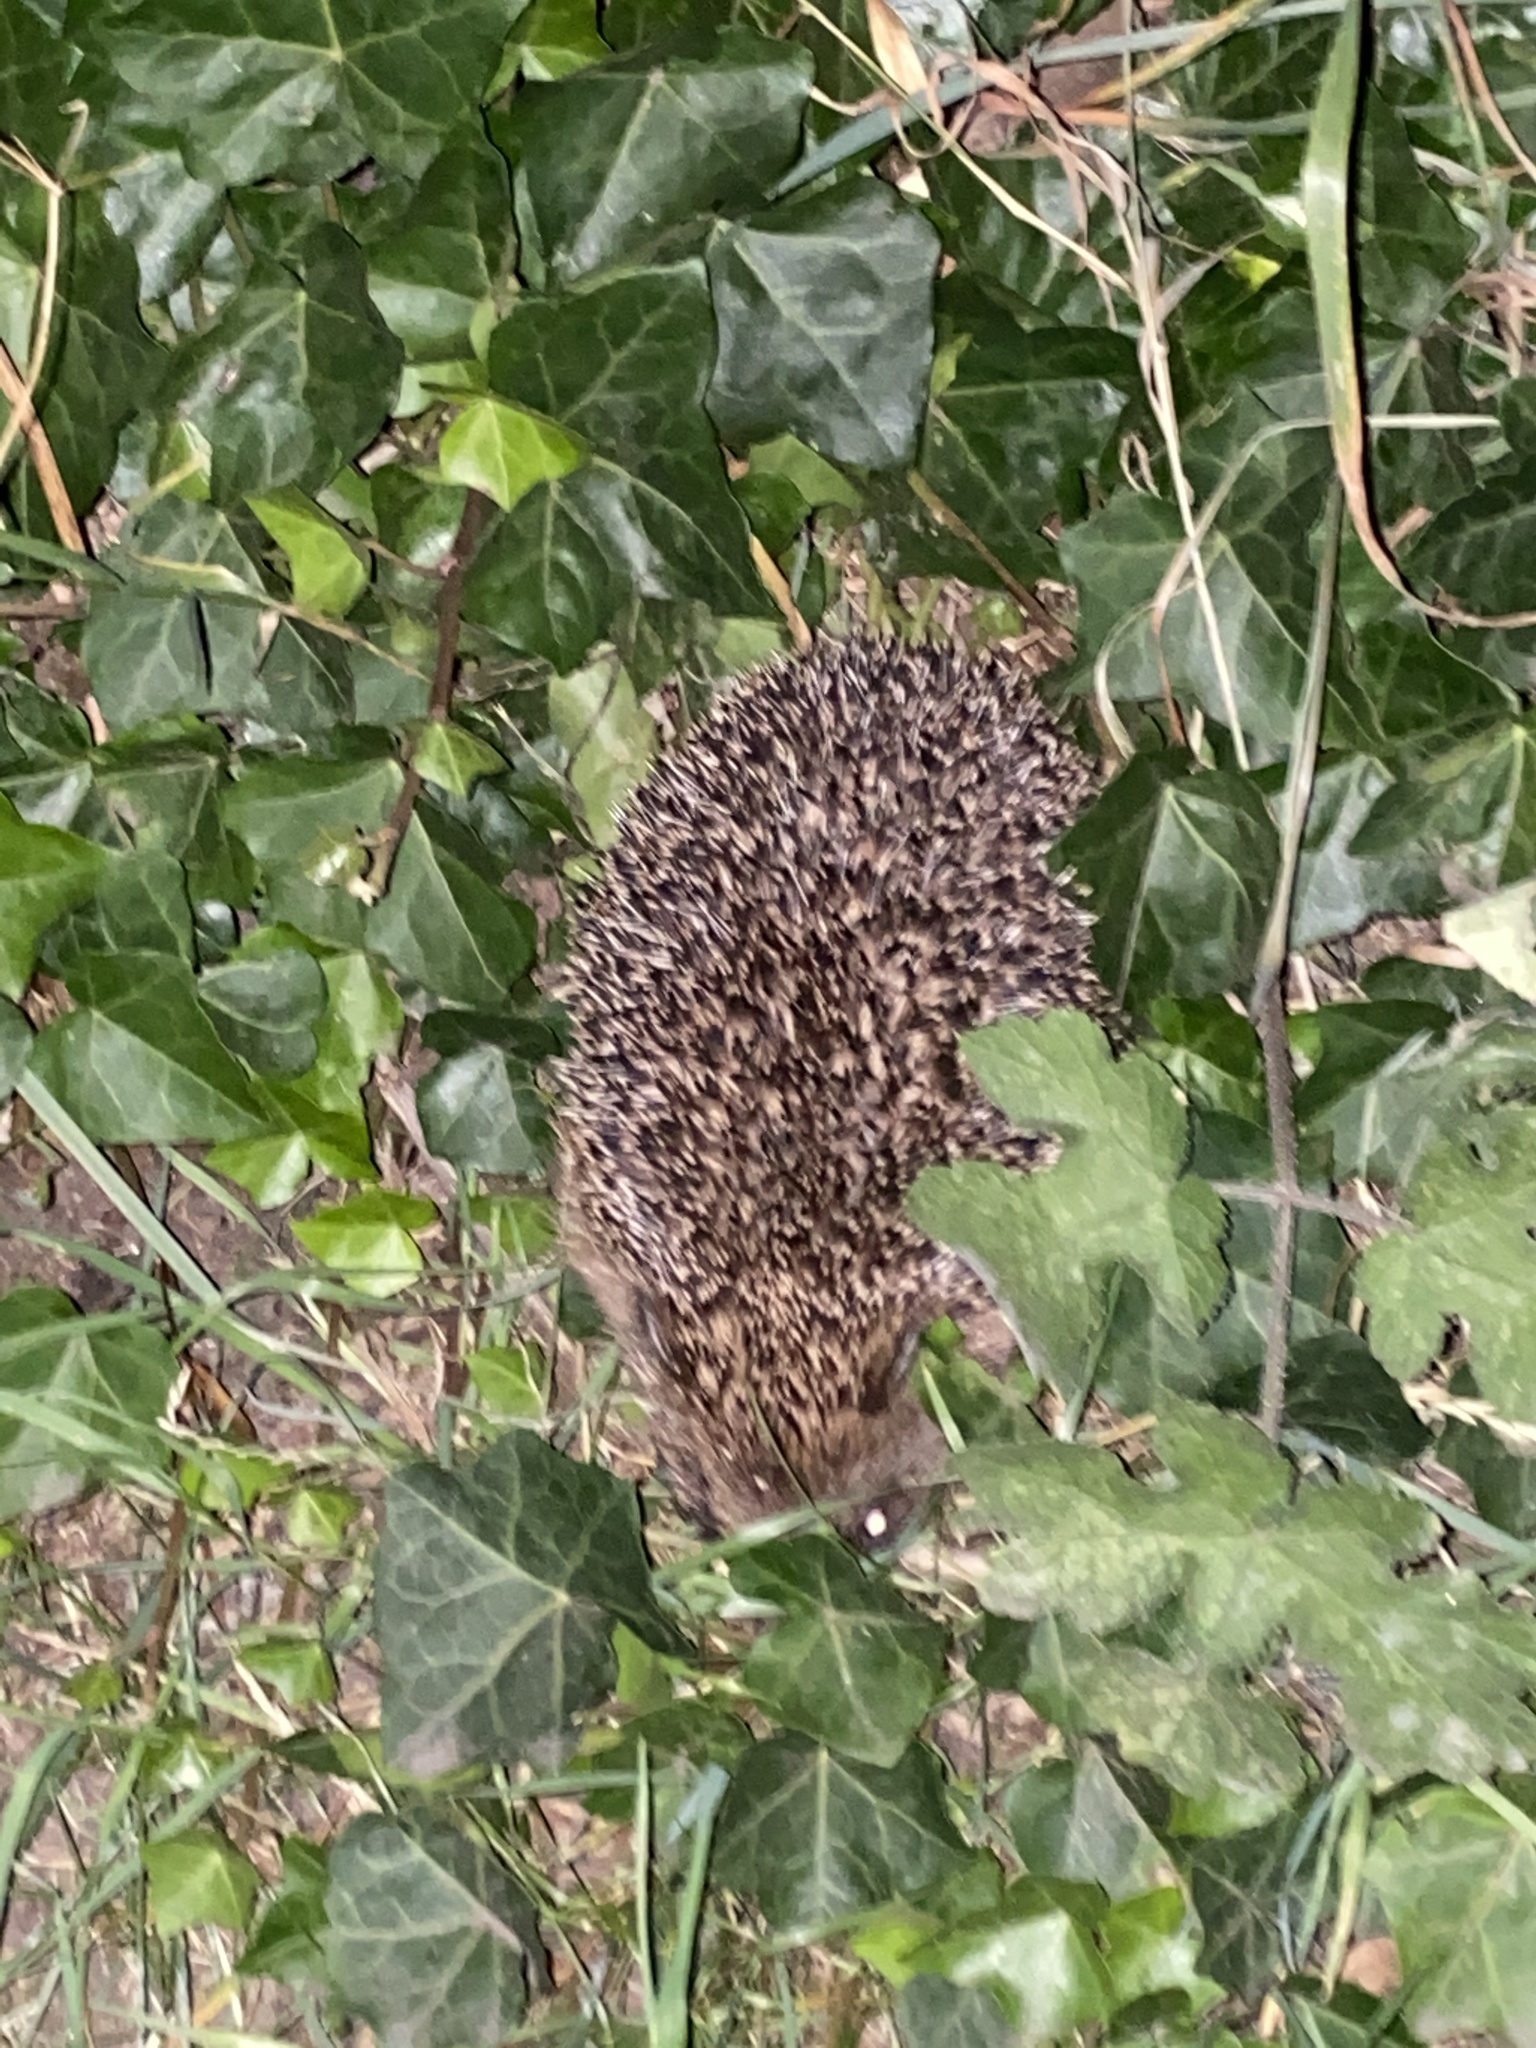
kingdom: Animalia
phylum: Chordata
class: Mammalia
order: Erinaceomorpha
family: Erinaceidae
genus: Erinaceus
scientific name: Erinaceus europaeus
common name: West european hedgehog
